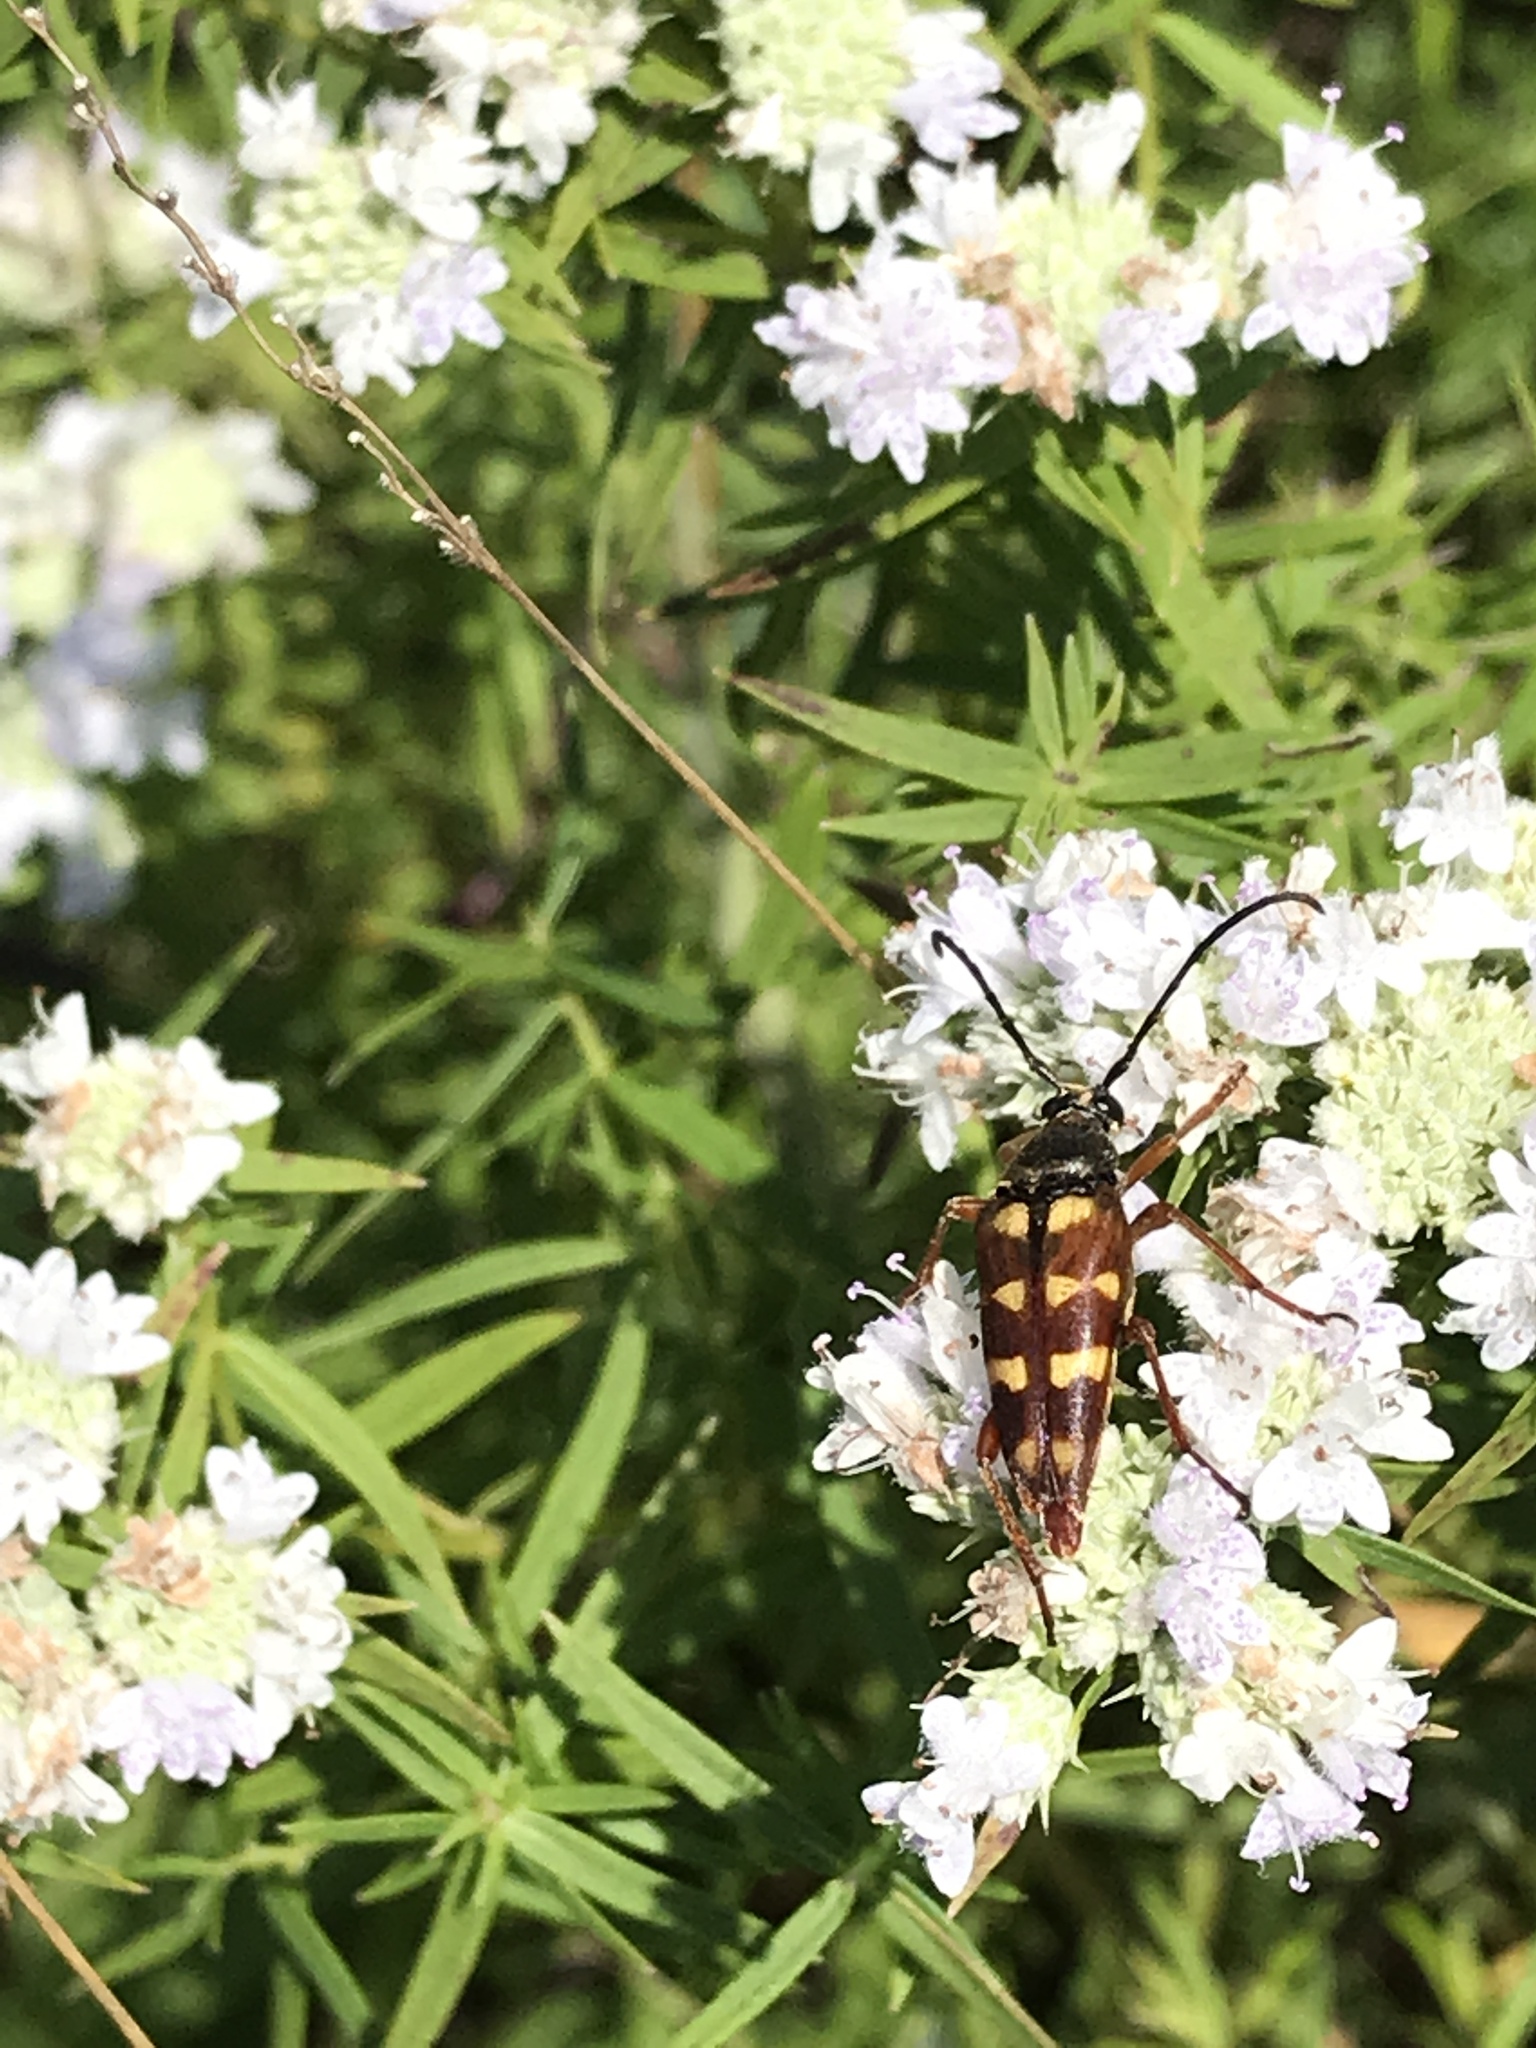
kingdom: Animalia
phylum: Arthropoda
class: Insecta
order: Coleoptera
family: Cerambycidae
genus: Typocerus
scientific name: Typocerus velutinus
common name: Banded longhorn beetle
